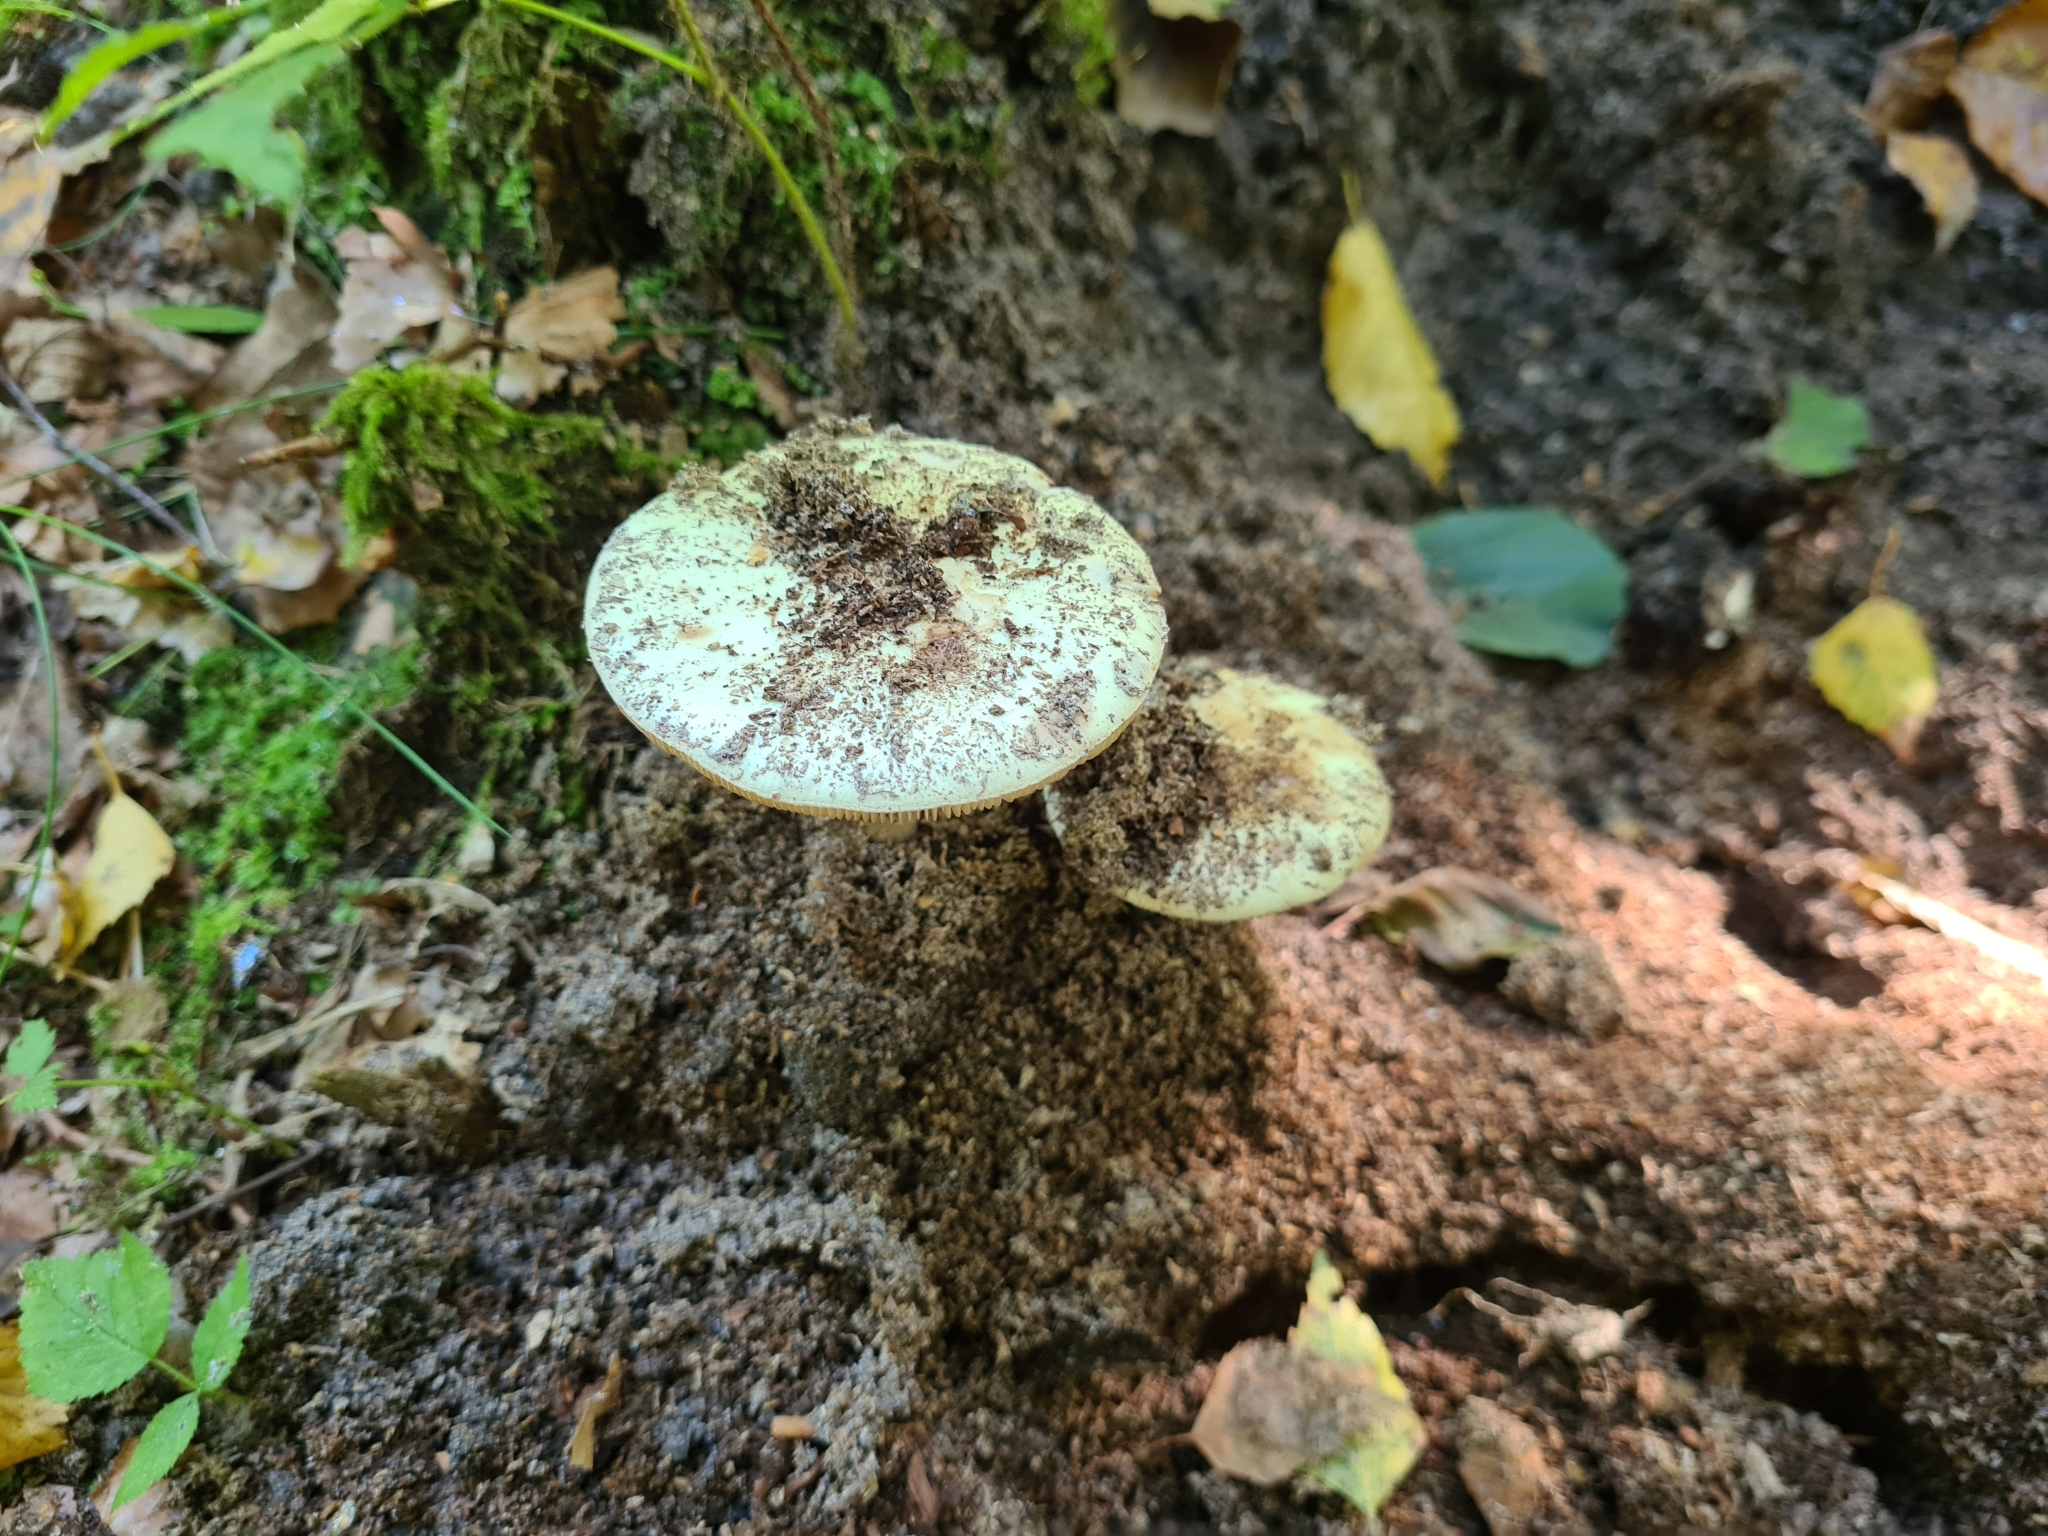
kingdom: Fungi
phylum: Basidiomycota
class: Agaricomycetes
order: Agaricales
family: Amanitaceae
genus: Amanita
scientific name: Amanita citrina
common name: False death-cap
